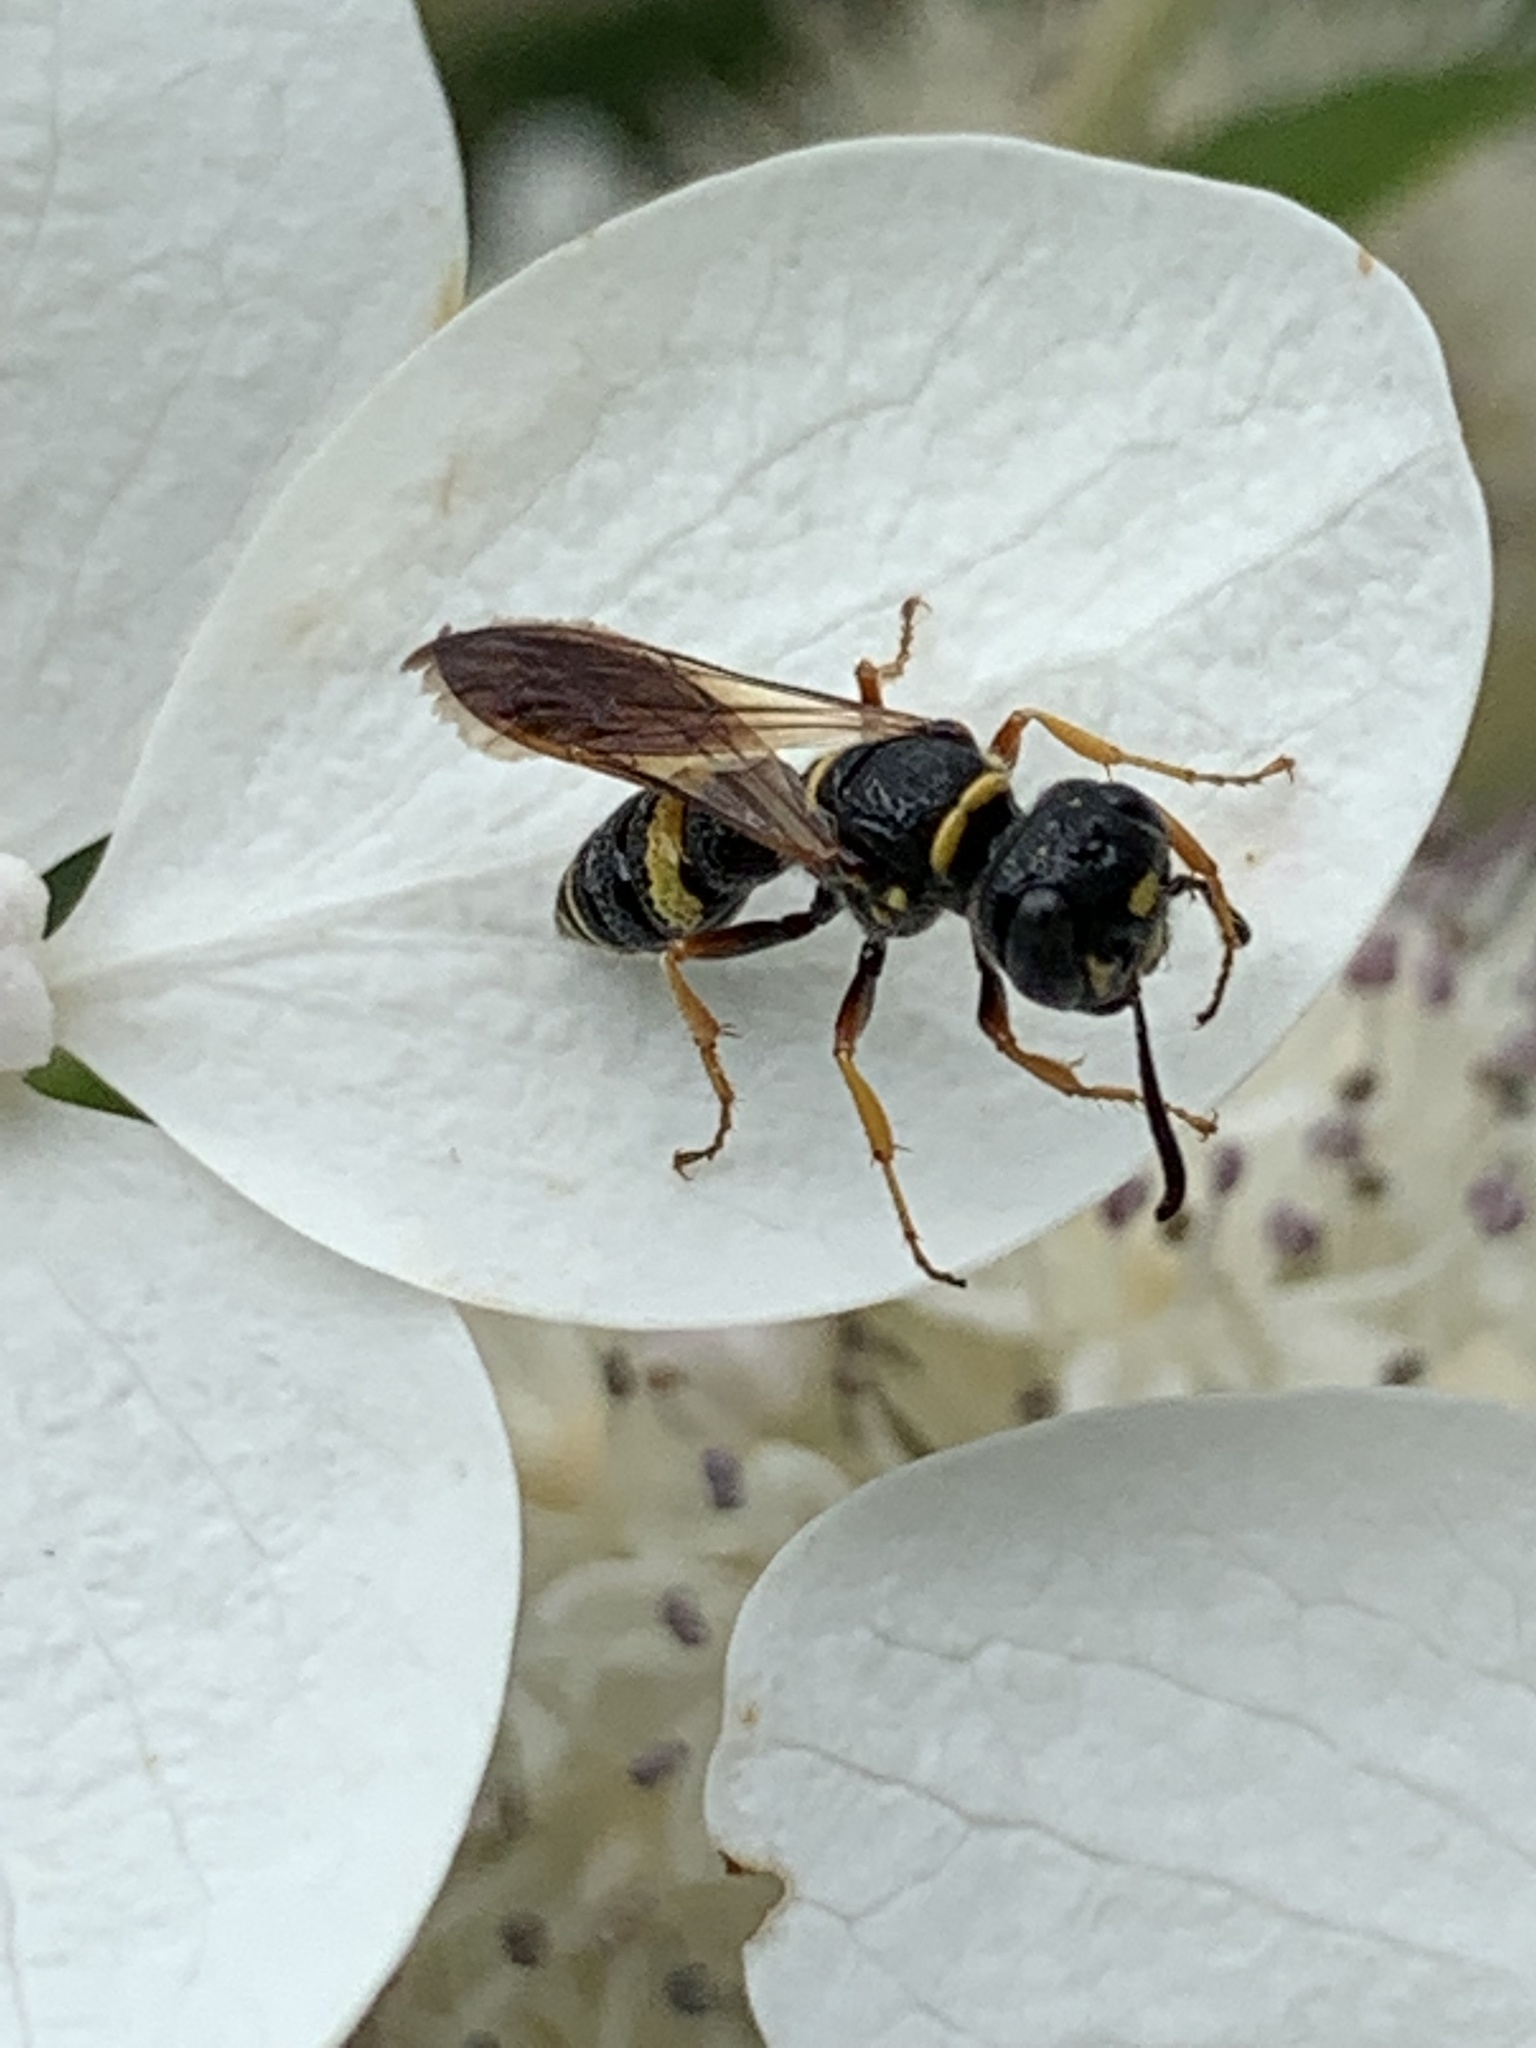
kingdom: Animalia
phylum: Arthropoda
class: Insecta
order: Hymenoptera
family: Crabronidae
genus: Philanthus
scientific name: Philanthus gibbosus
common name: Humped beewolf
